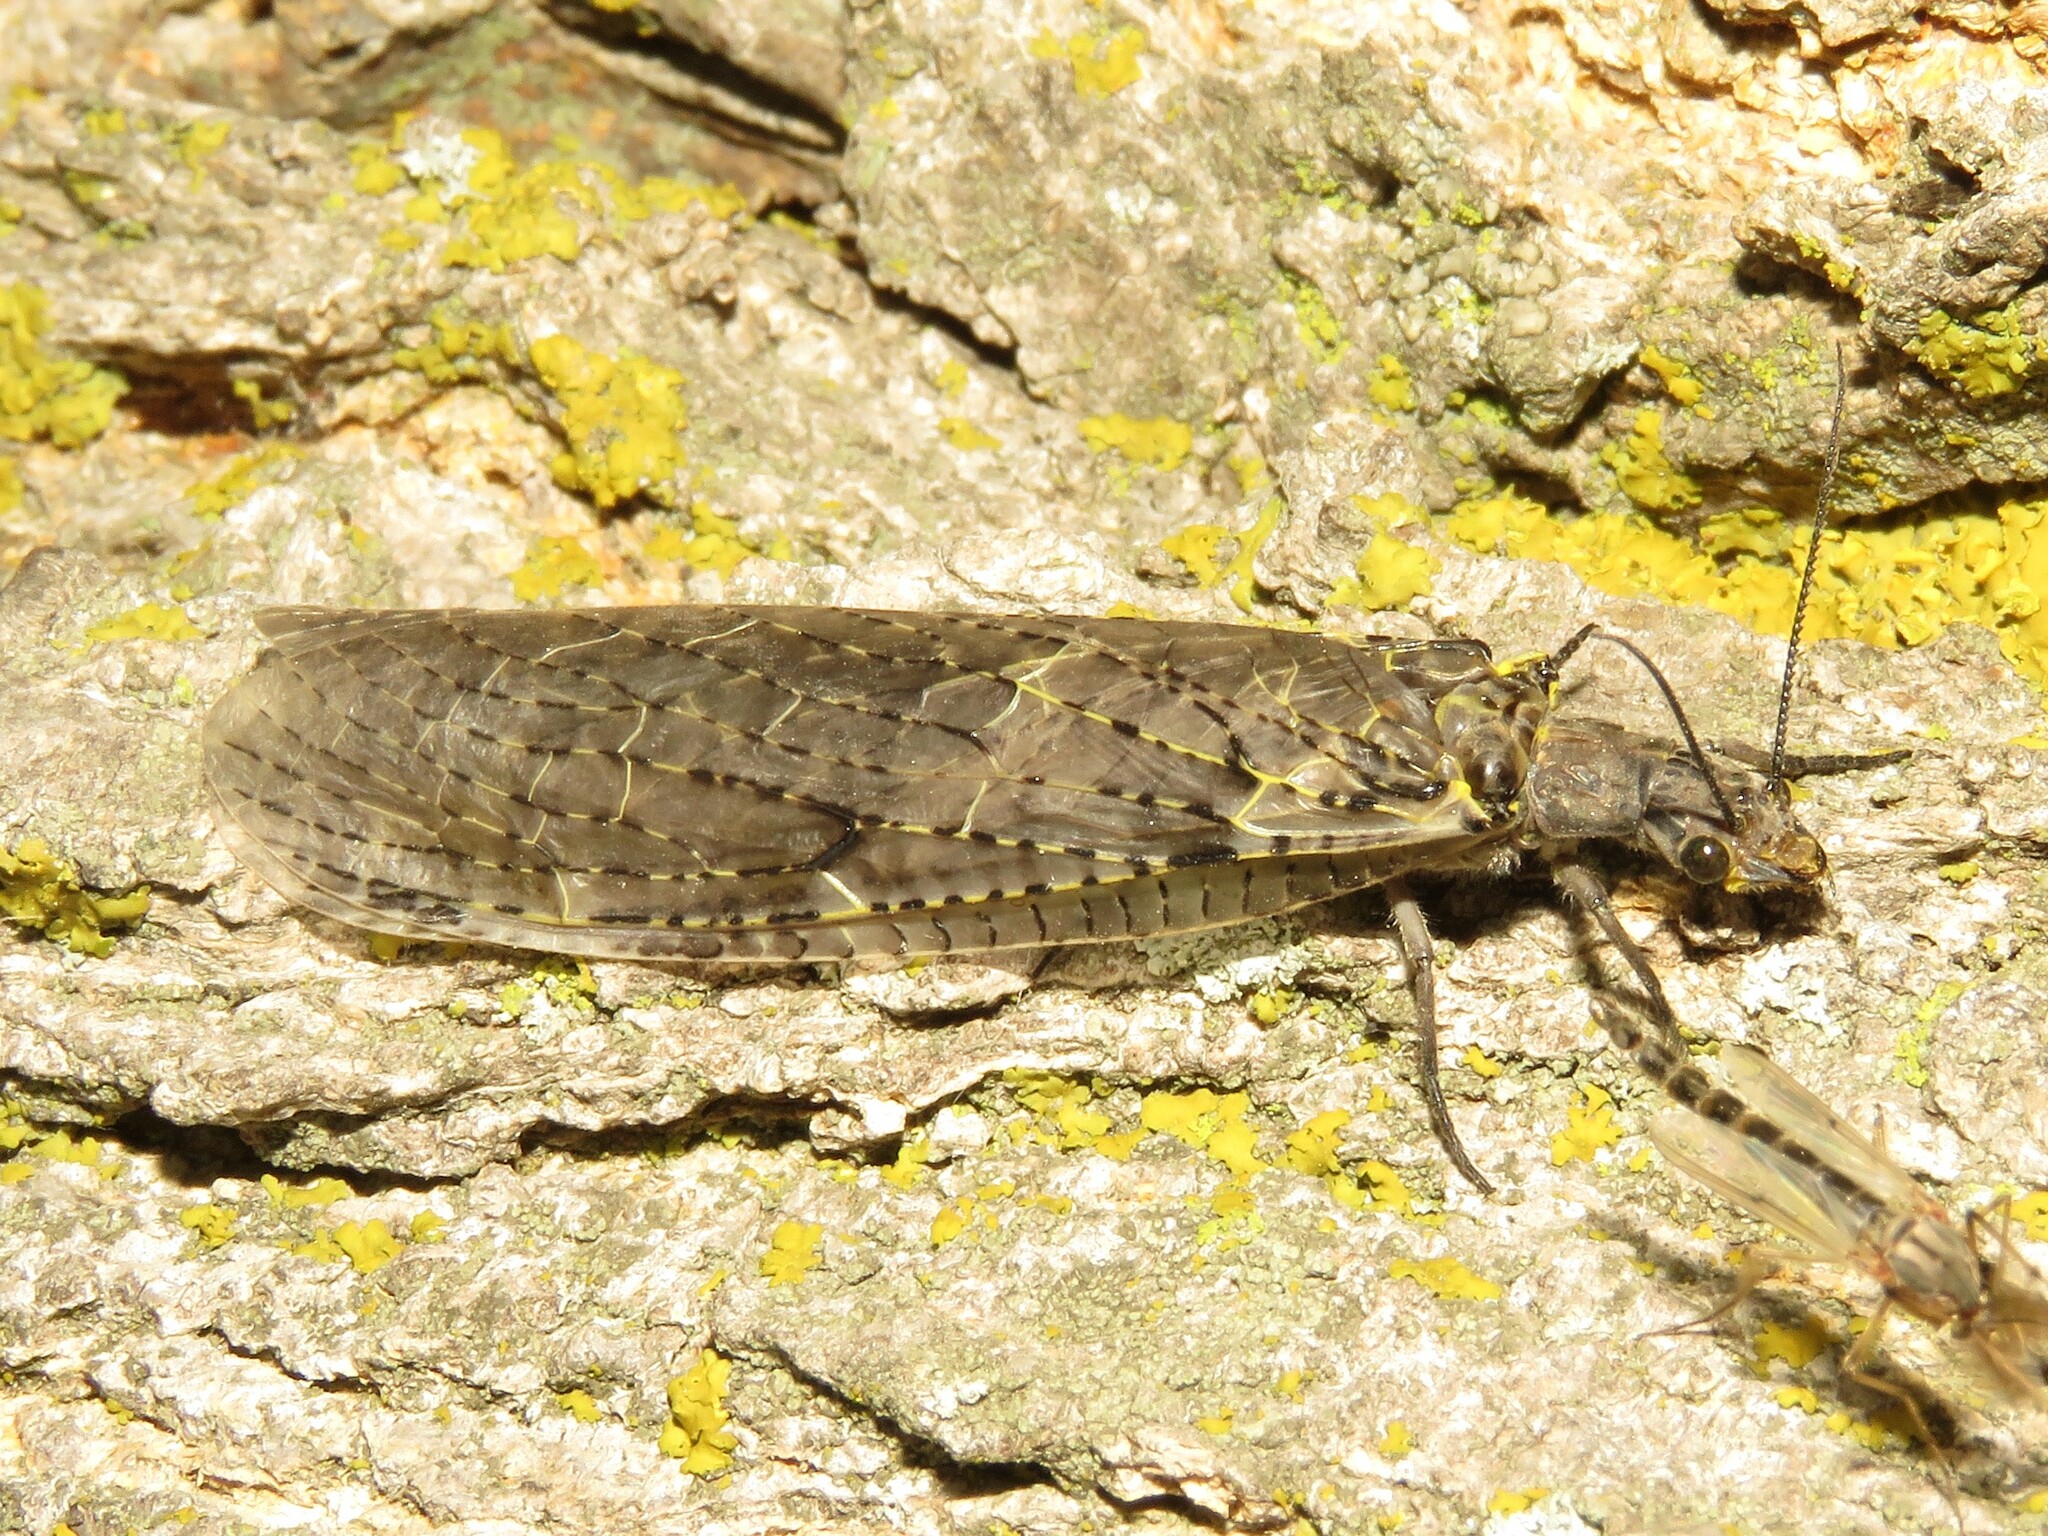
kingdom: Animalia
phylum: Arthropoda
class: Insecta
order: Megaloptera
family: Corydalidae
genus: Chauliodes
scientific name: Chauliodes rastricornis
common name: Spring fishfly
